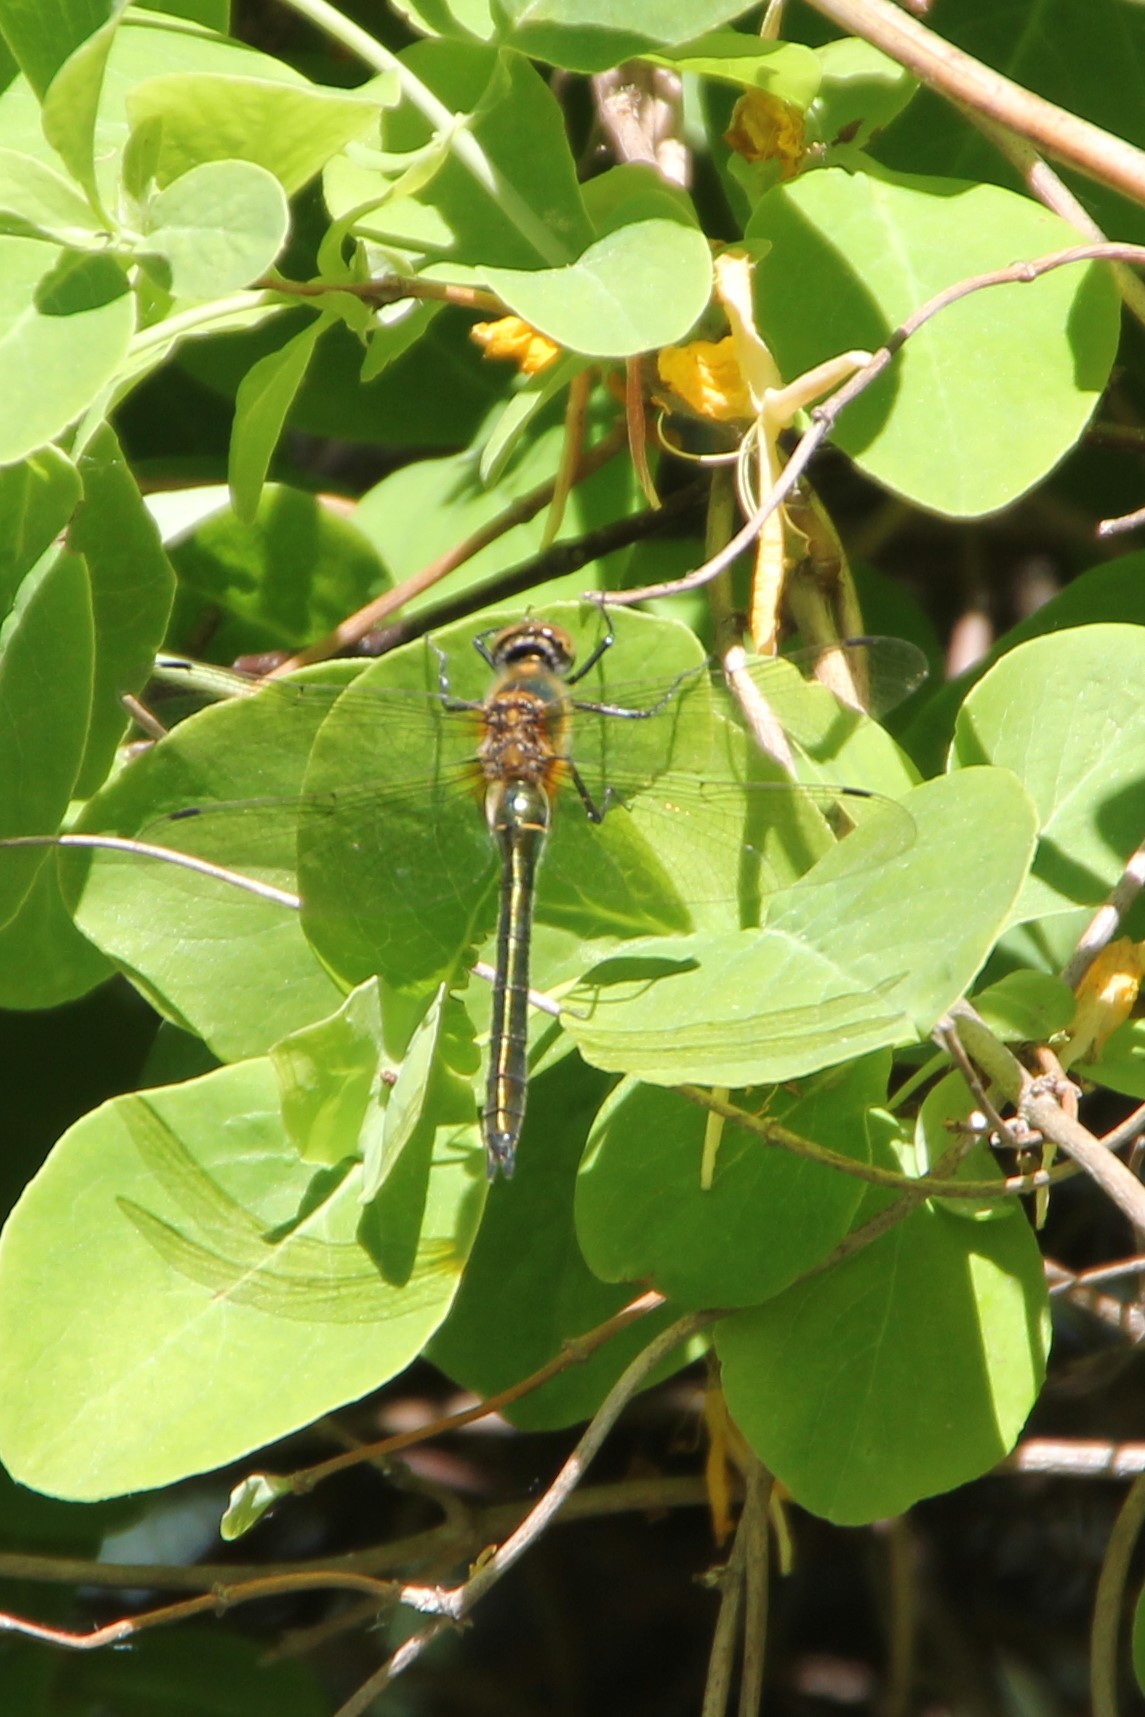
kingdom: Animalia
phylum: Arthropoda
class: Insecta
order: Odonata
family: Corduliidae
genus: Cordulia
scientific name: Cordulia aenea
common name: Downy emerald
